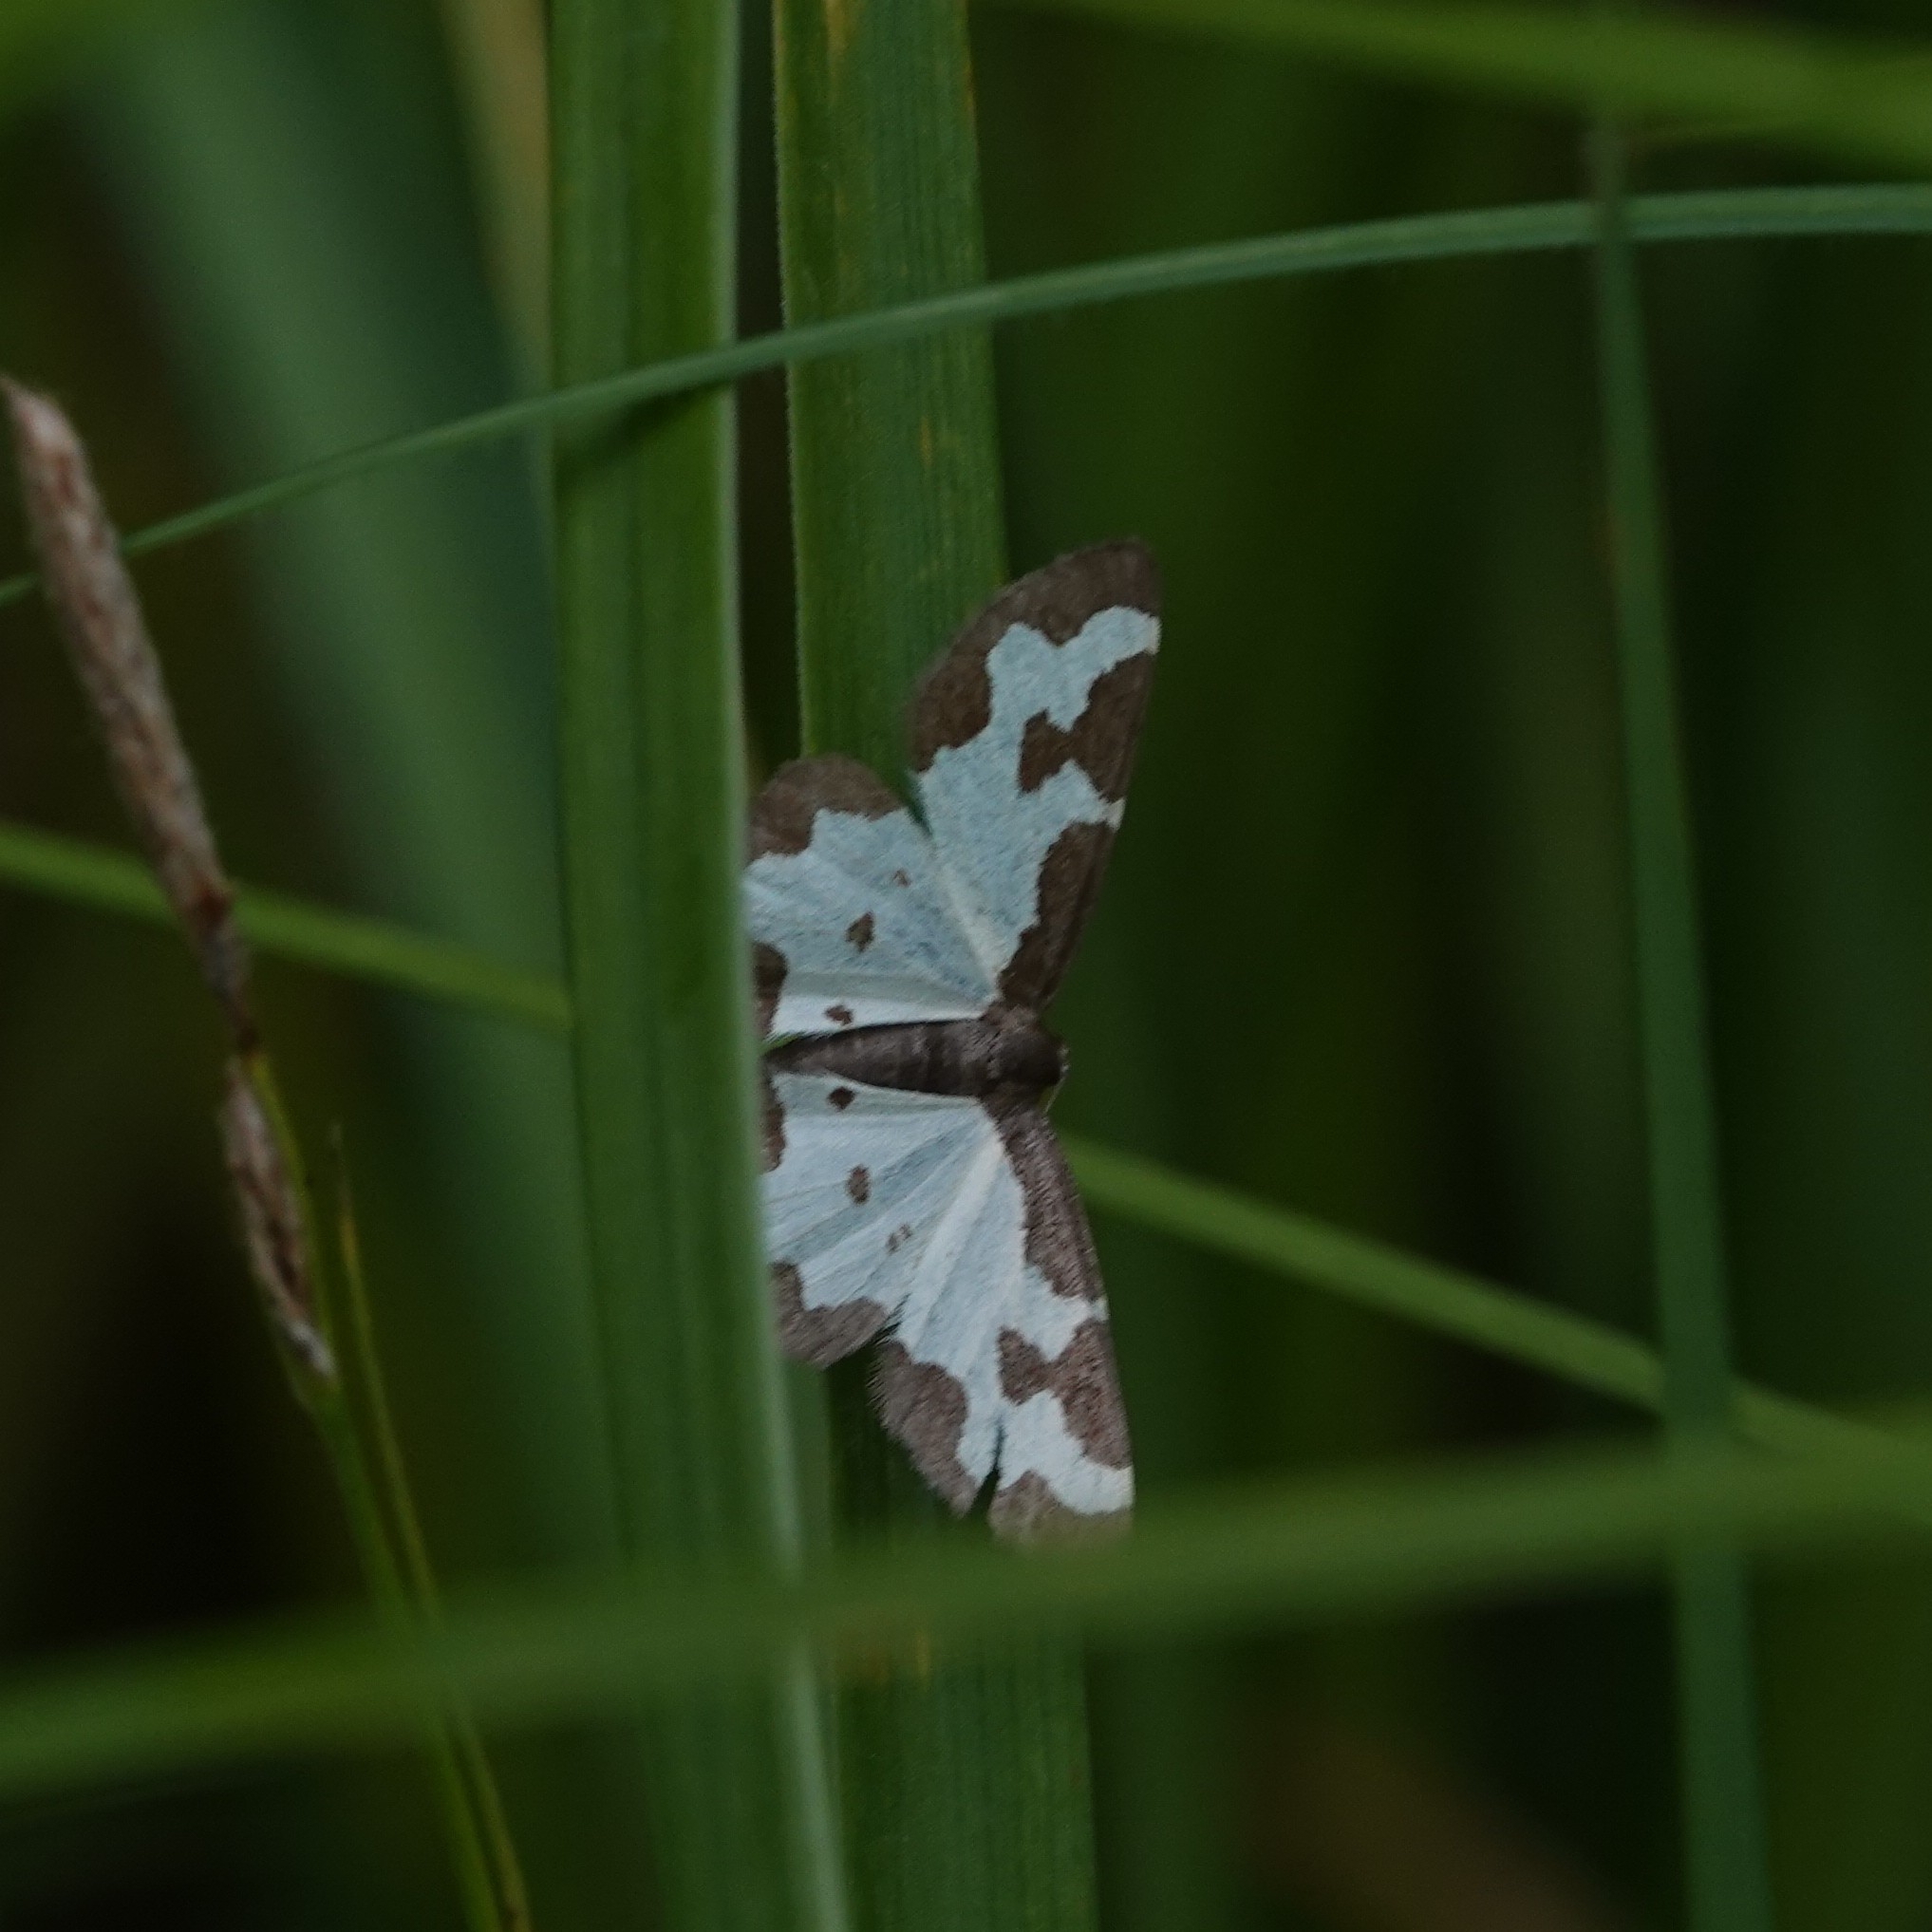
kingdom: Animalia
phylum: Arthropoda
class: Insecta
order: Lepidoptera
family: Geometridae
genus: Lomaspilis
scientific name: Lomaspilis marginata
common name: Clouded border
